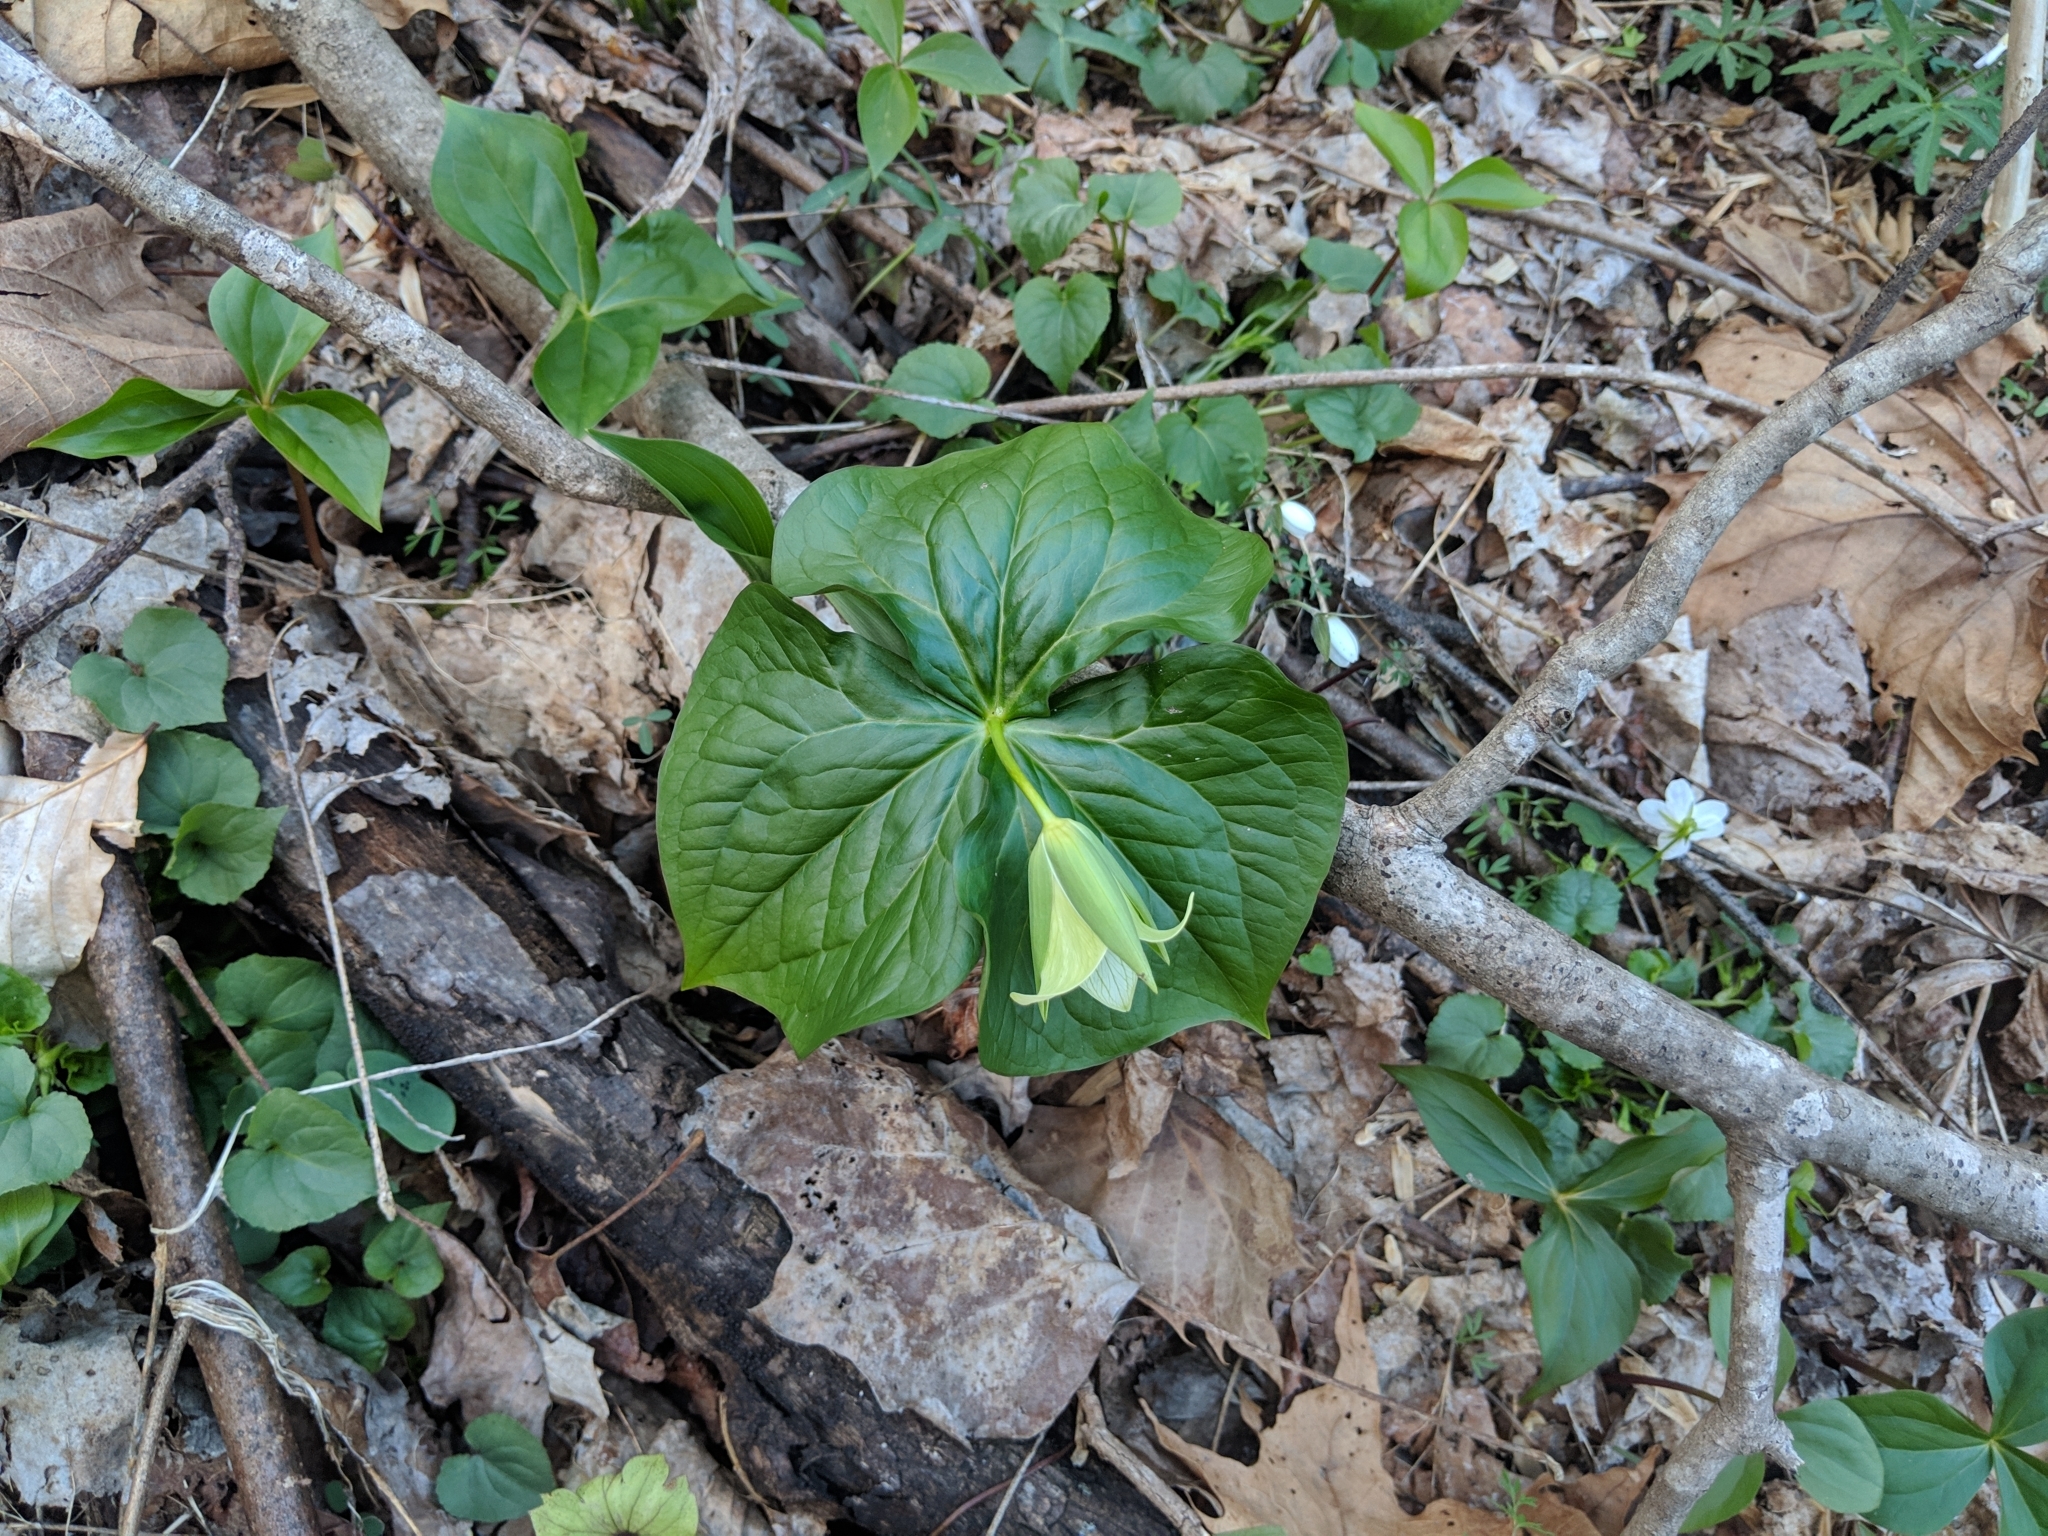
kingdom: Plantae
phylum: Tracheophyta
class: Liliopsida
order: Liliales
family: Melanthiaceae
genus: Trillium
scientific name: Trillium erectum
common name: Purple trillium
